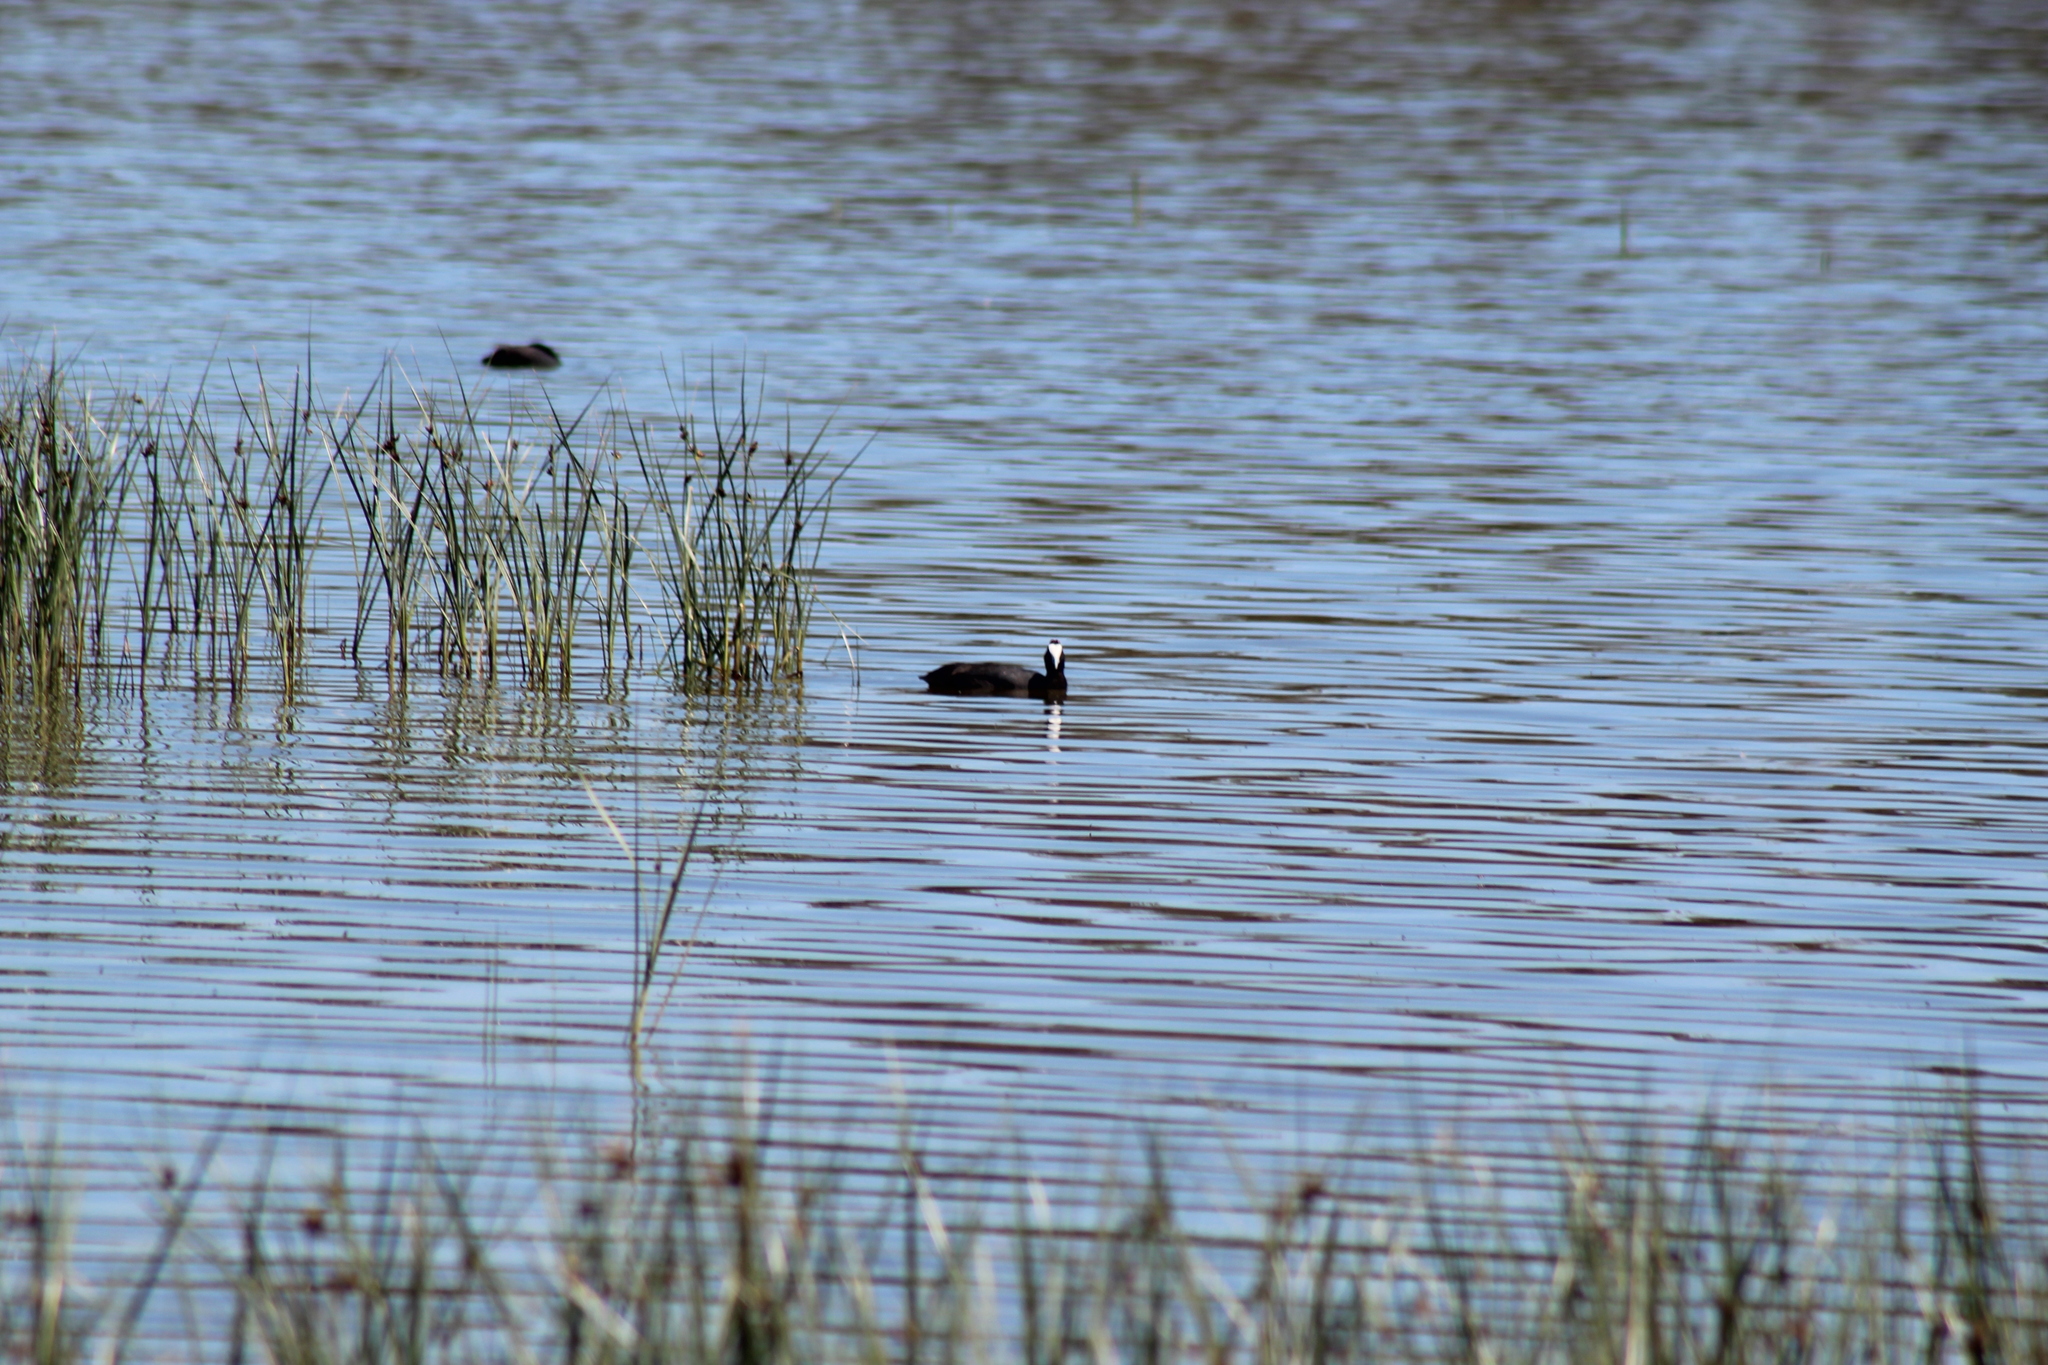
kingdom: Animalia
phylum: Chordata
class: Aves
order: Gruiformes
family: Rallidae
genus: Fulica
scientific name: Fulica cristata
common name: Red-knobbed coot
